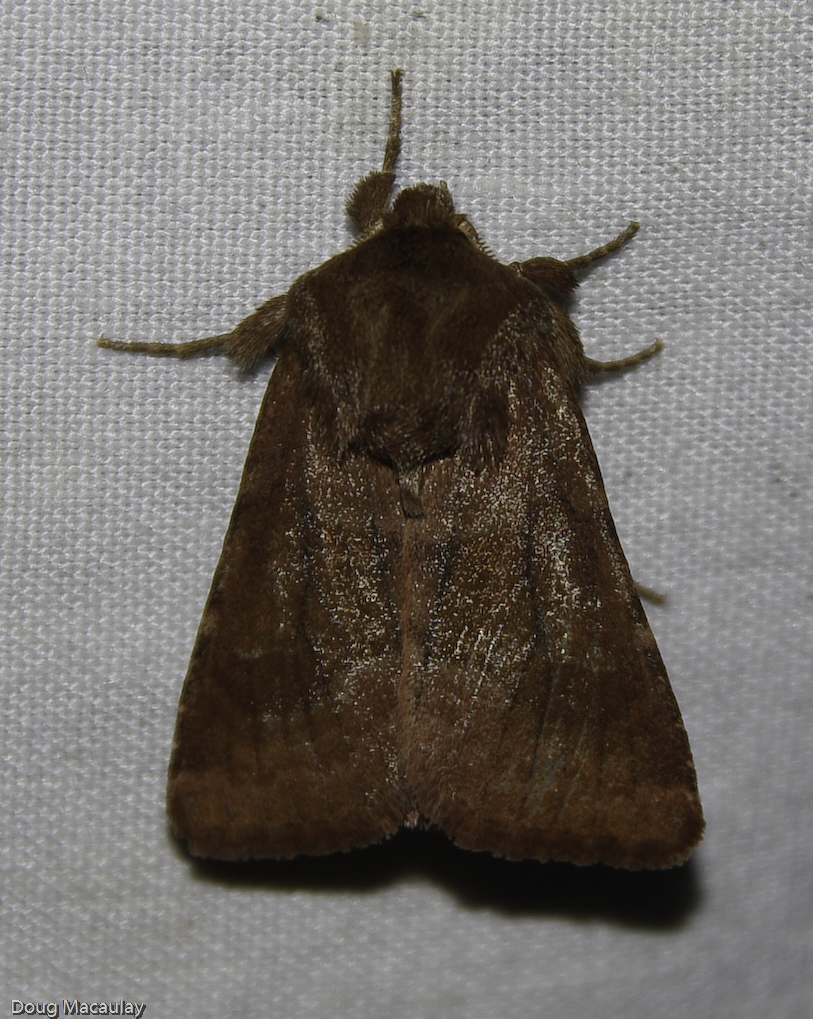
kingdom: Animalia
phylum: Arthropoda
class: Insecta
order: Lepidoptera
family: Noctuidae
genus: Nephelodes
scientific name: Nephelodes minians
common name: Bronzed cutworm
